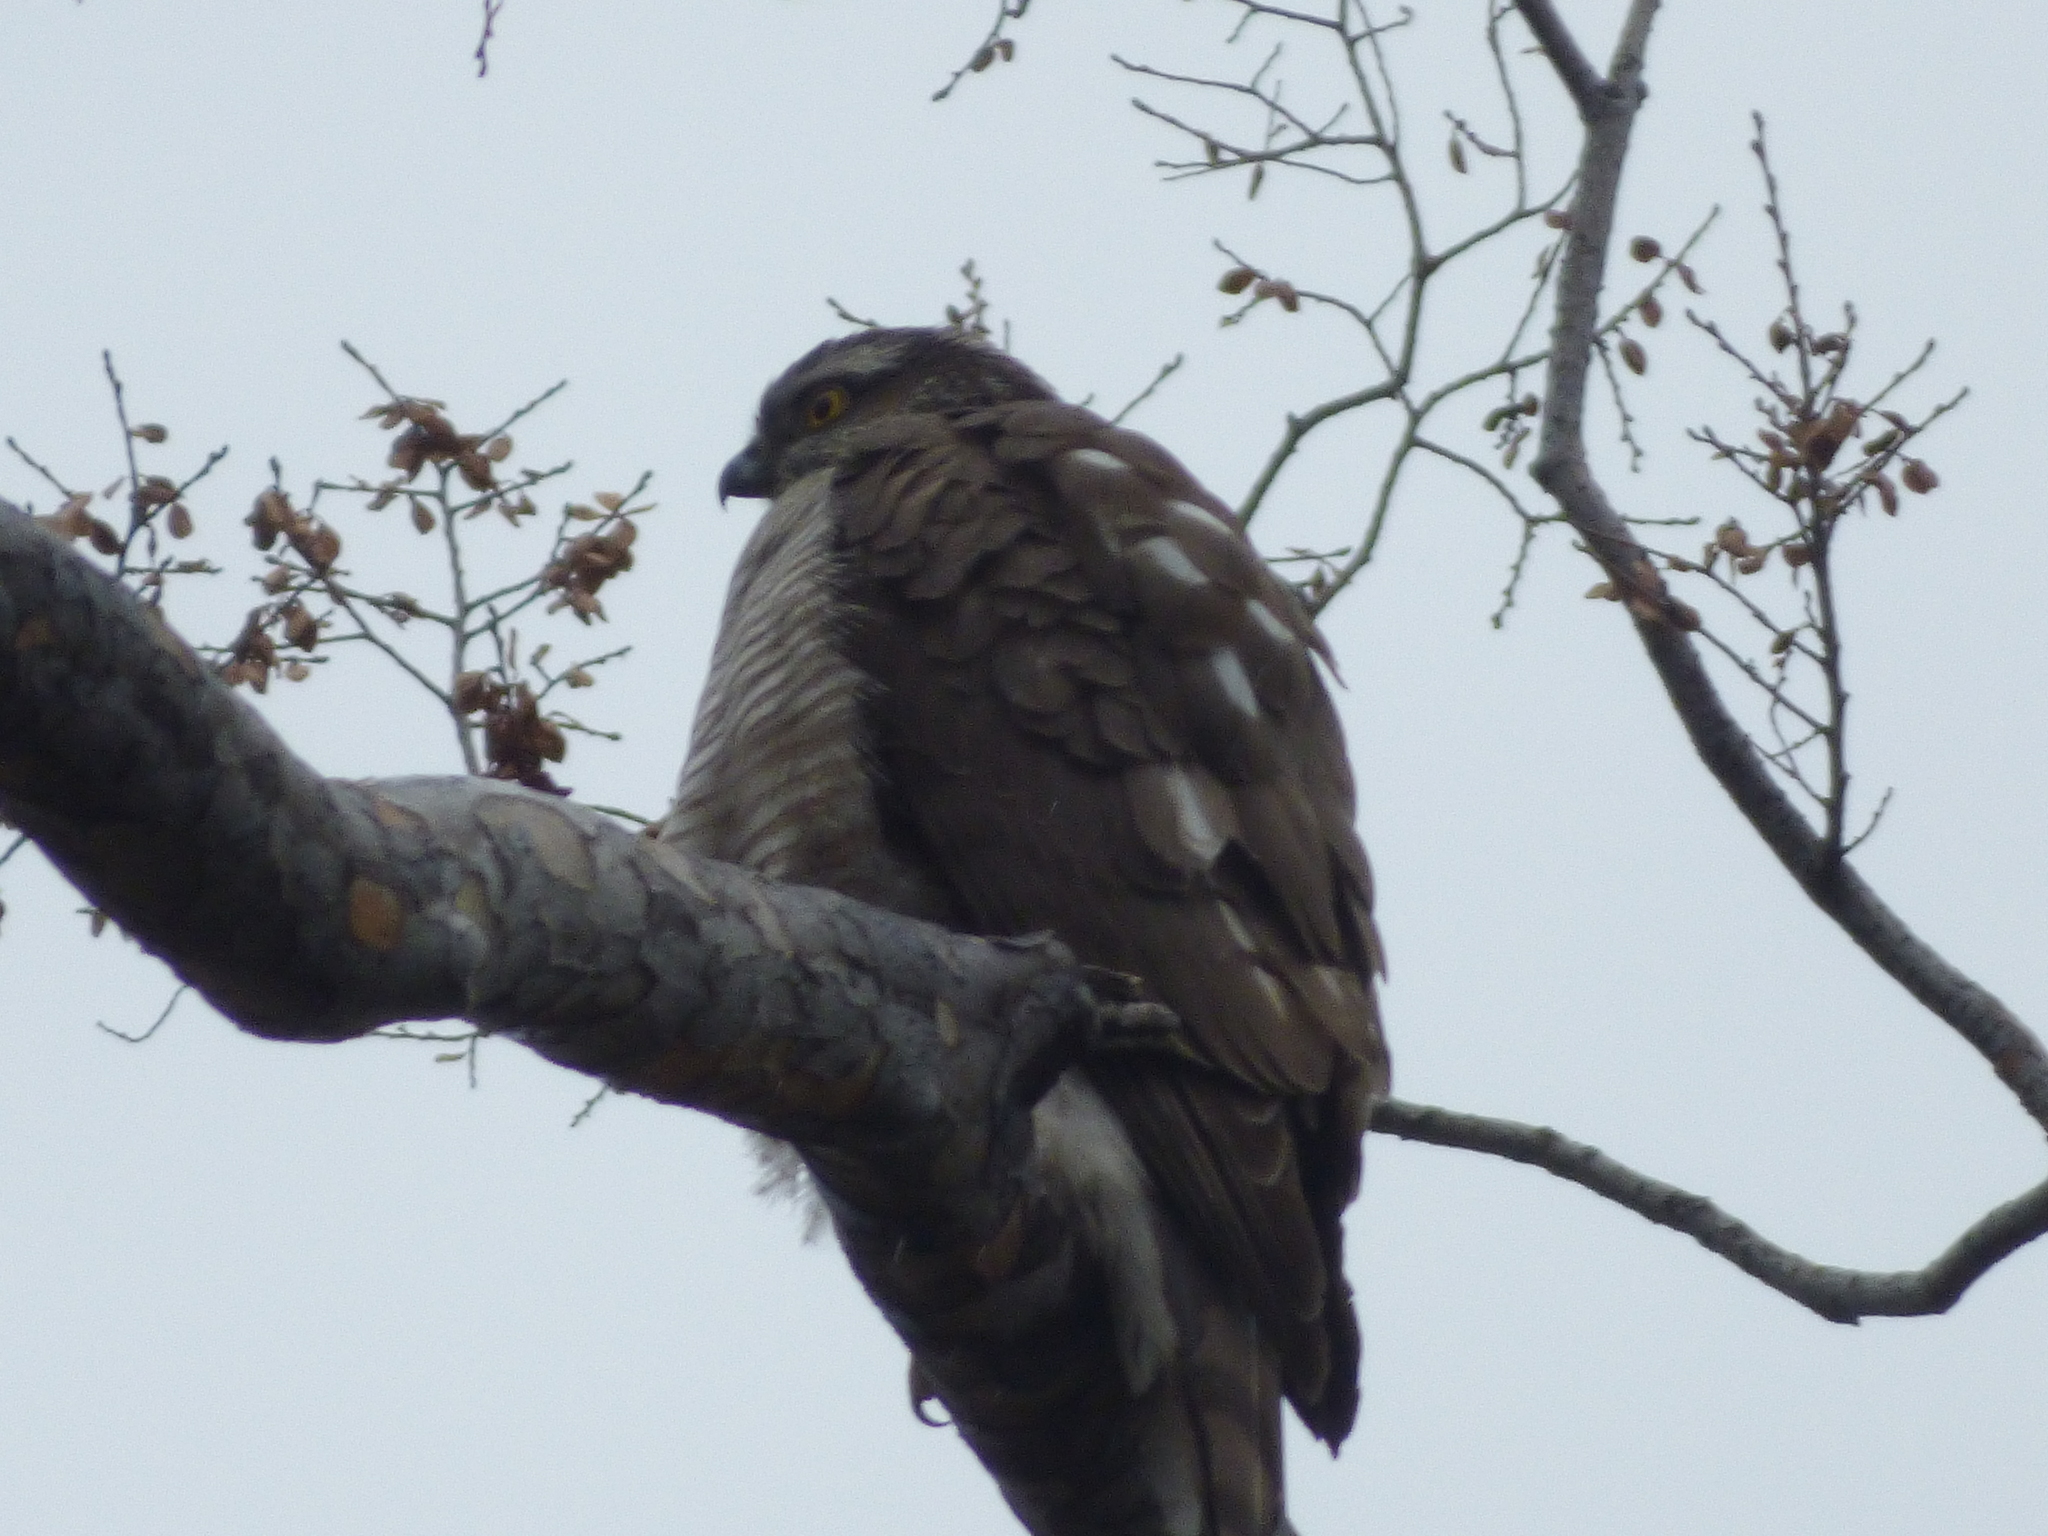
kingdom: Animalia
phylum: Chordata
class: Aves
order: Accipitriformes
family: Accipitridae
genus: Accipiter
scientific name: Accipiter nisus
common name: Eurasian sparrowhawk
